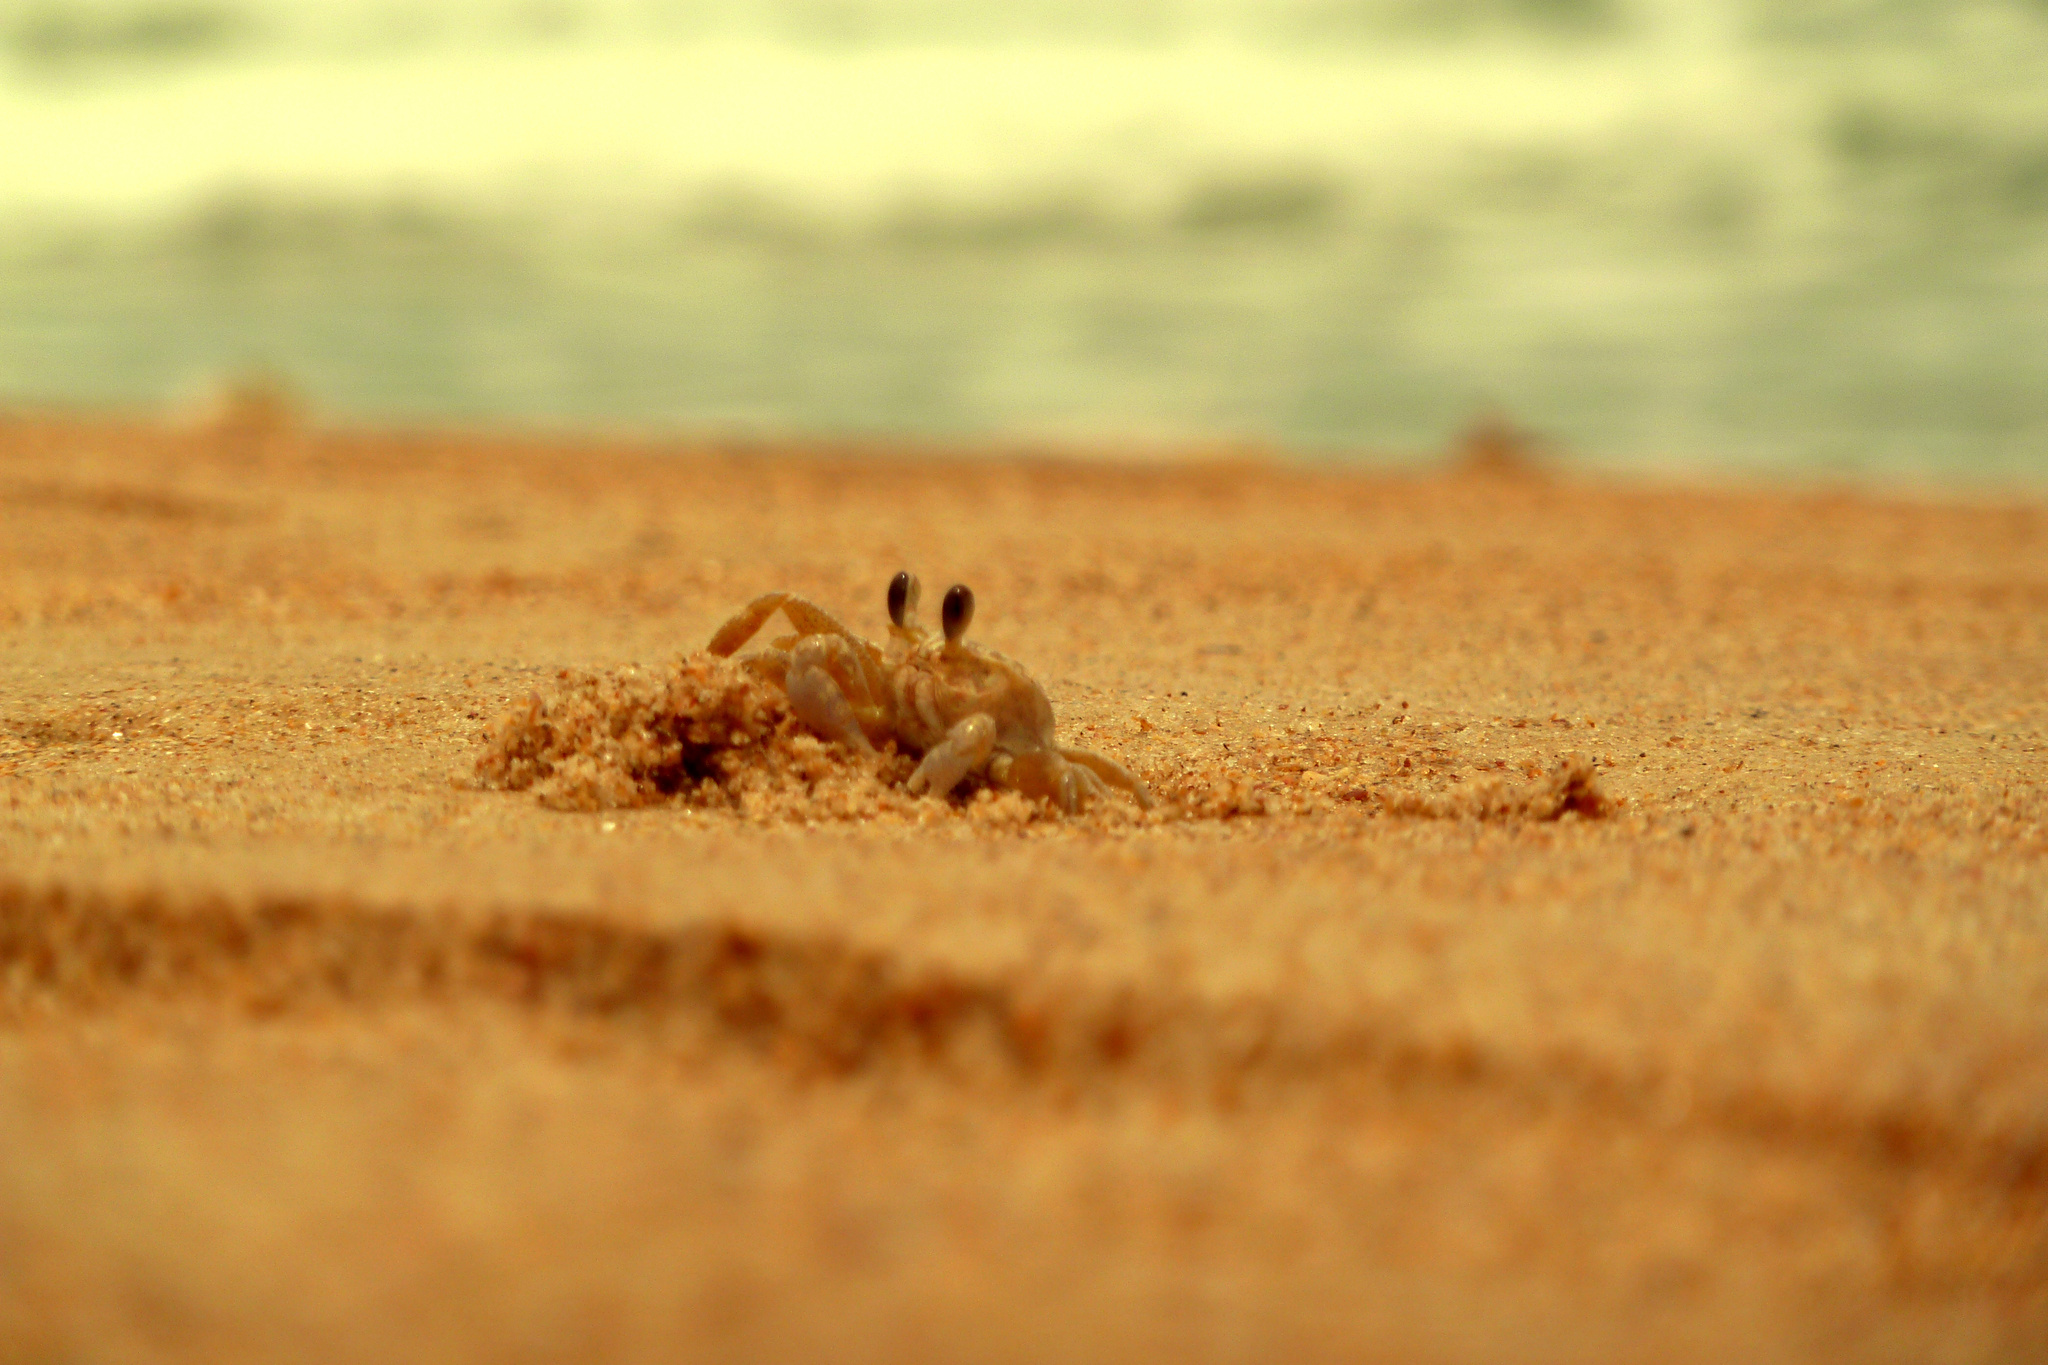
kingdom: Animalia
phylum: Arthropoda
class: Malacostraca
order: Decapoda
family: Ocypodidae
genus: Ocypode
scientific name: Ocypode quadrata
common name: Ghost crab
